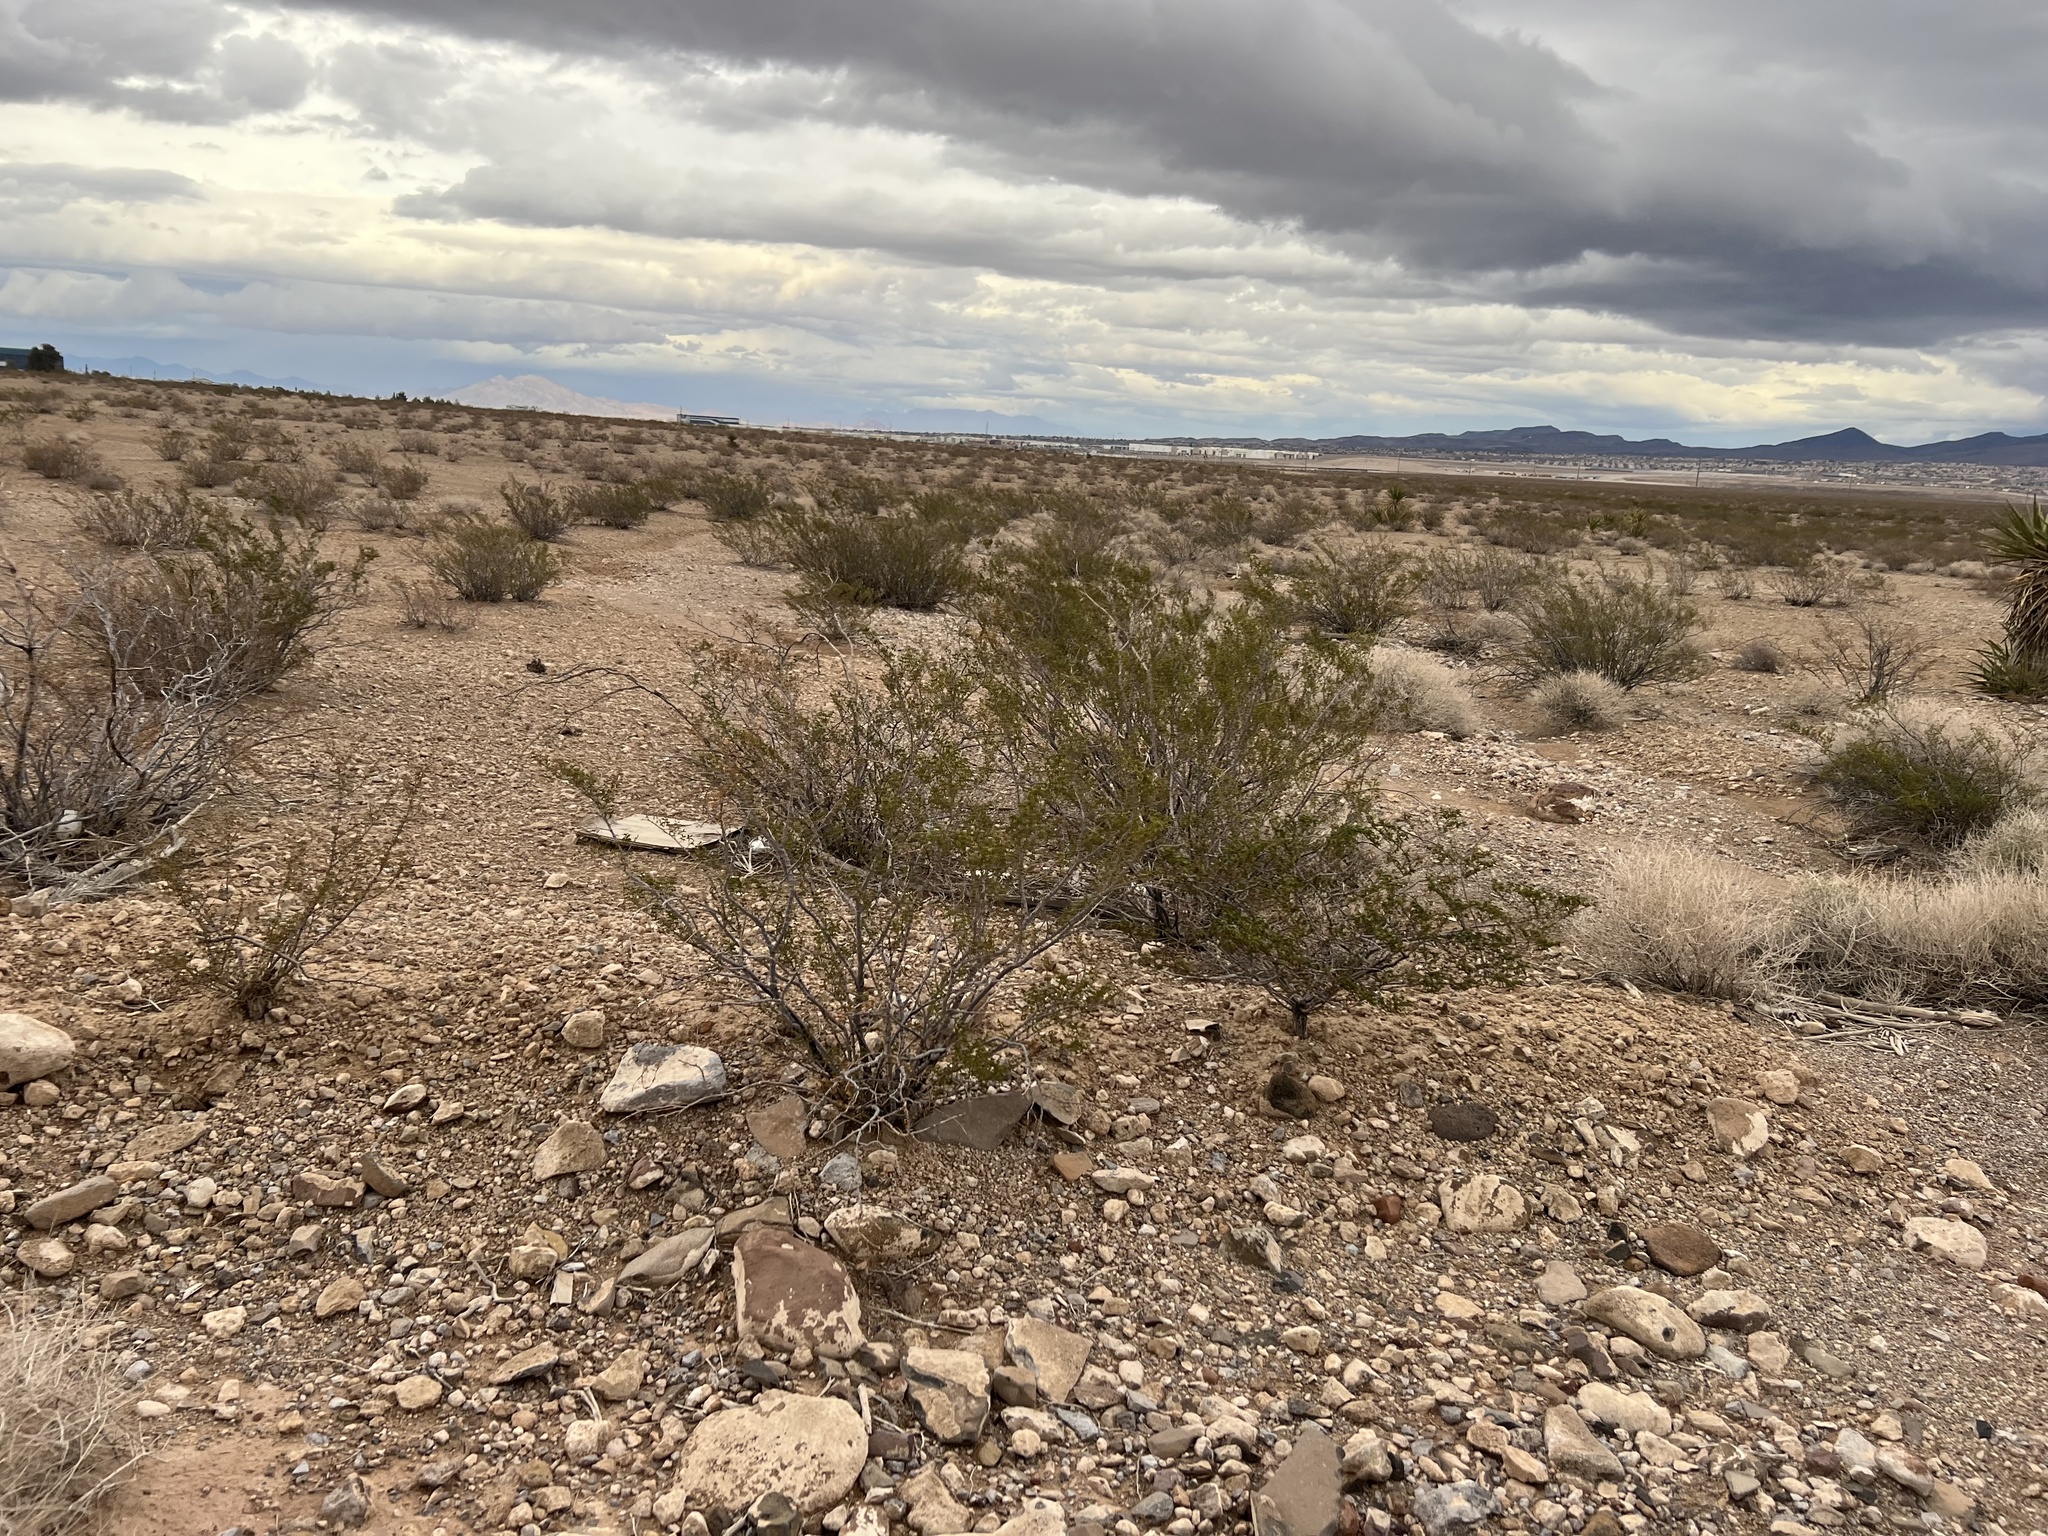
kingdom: Plantae
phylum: Tracheophyta
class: Magnoliopsida
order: Zygophyllales
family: Zygophyllaceae
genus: Larrea
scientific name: Larrea tridentata
